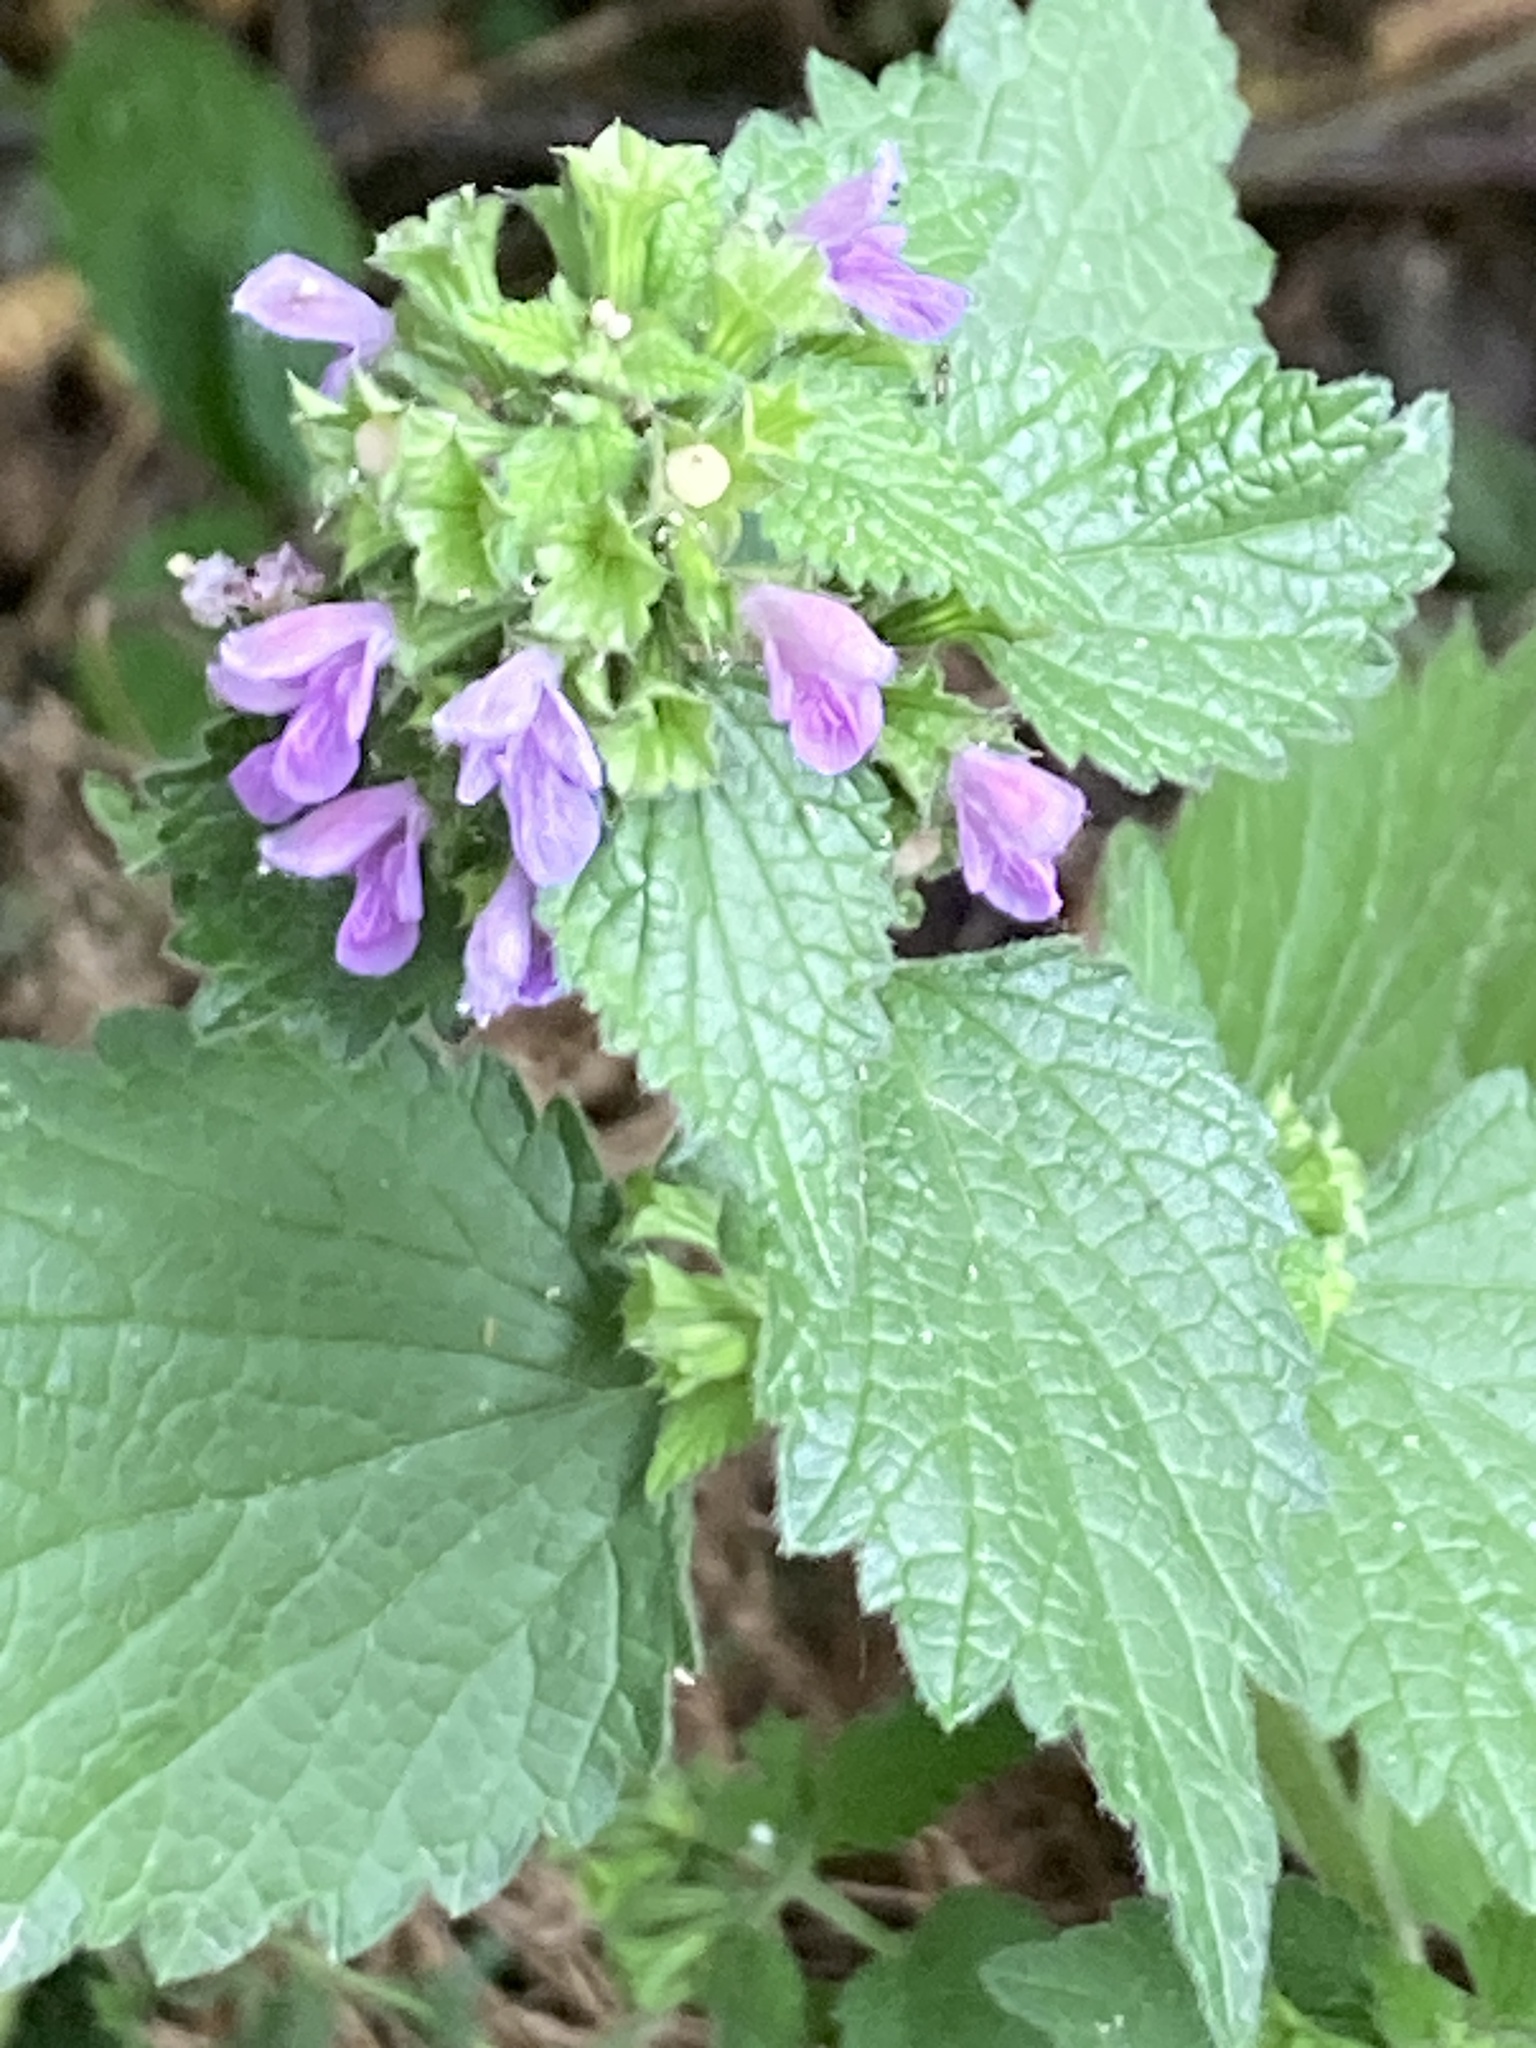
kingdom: Plantae
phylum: Tracheophyta
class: Magnoliopsida
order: Lamiales
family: Lamiaceae
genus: Ballota
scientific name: Ballota nigra
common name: Black horehound
